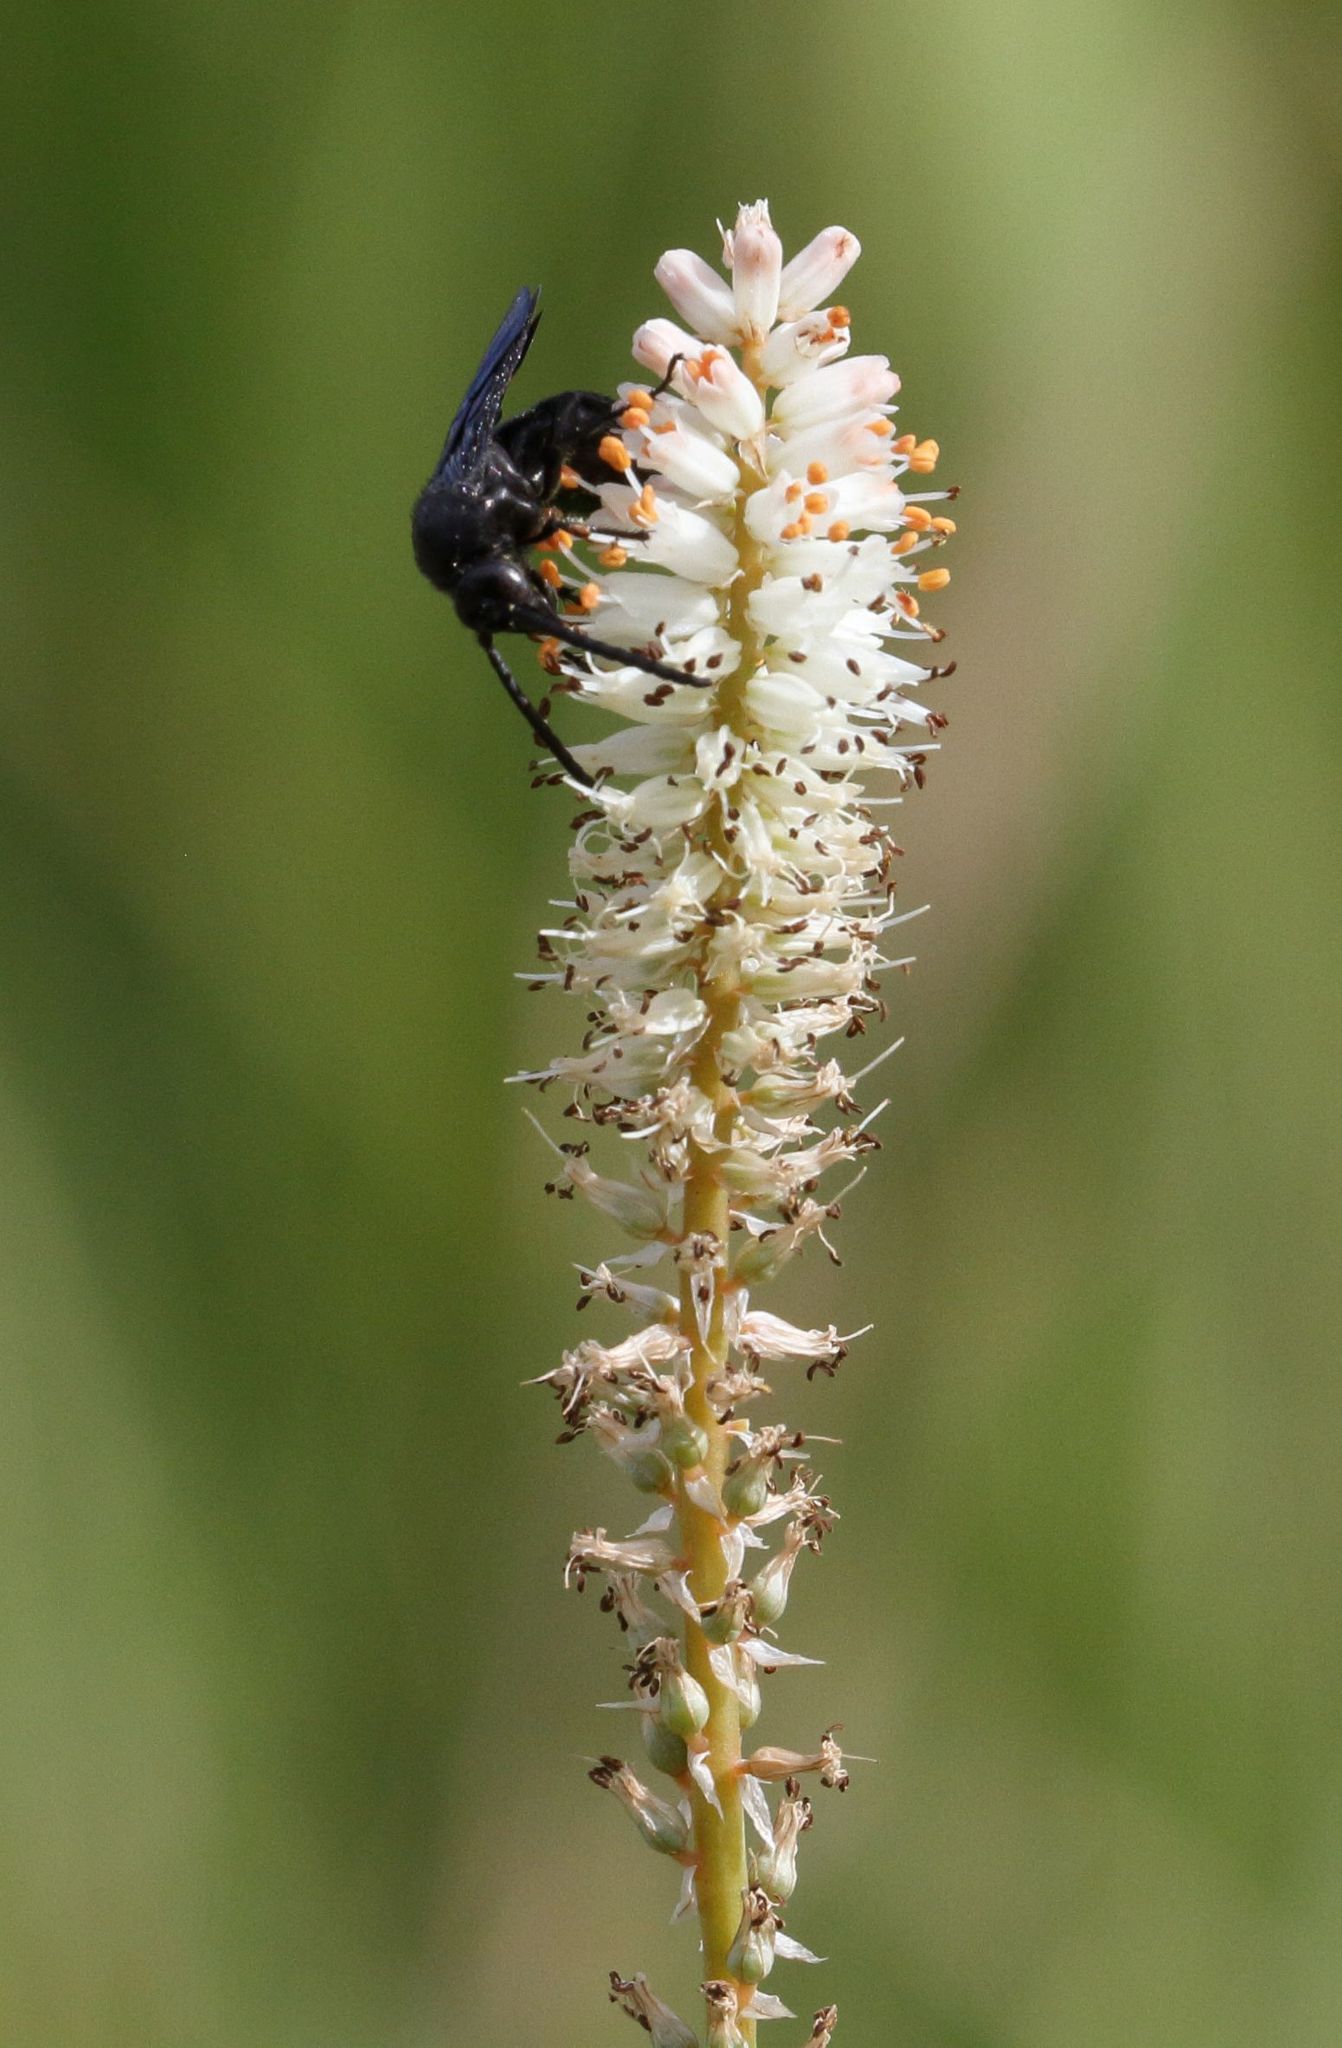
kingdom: Plantae
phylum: Tracheophyta
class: Liliopsida
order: Asparagales
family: Asphodelaceae
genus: Kniphofia
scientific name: Kniphofia buchananii
